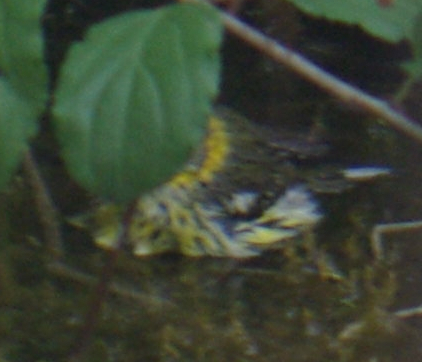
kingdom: Animalia
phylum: Chordata
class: Aves
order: Passeriformes
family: Parulidae
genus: Setophaga
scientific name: Setophaga tigrina
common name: Cape may warbler
